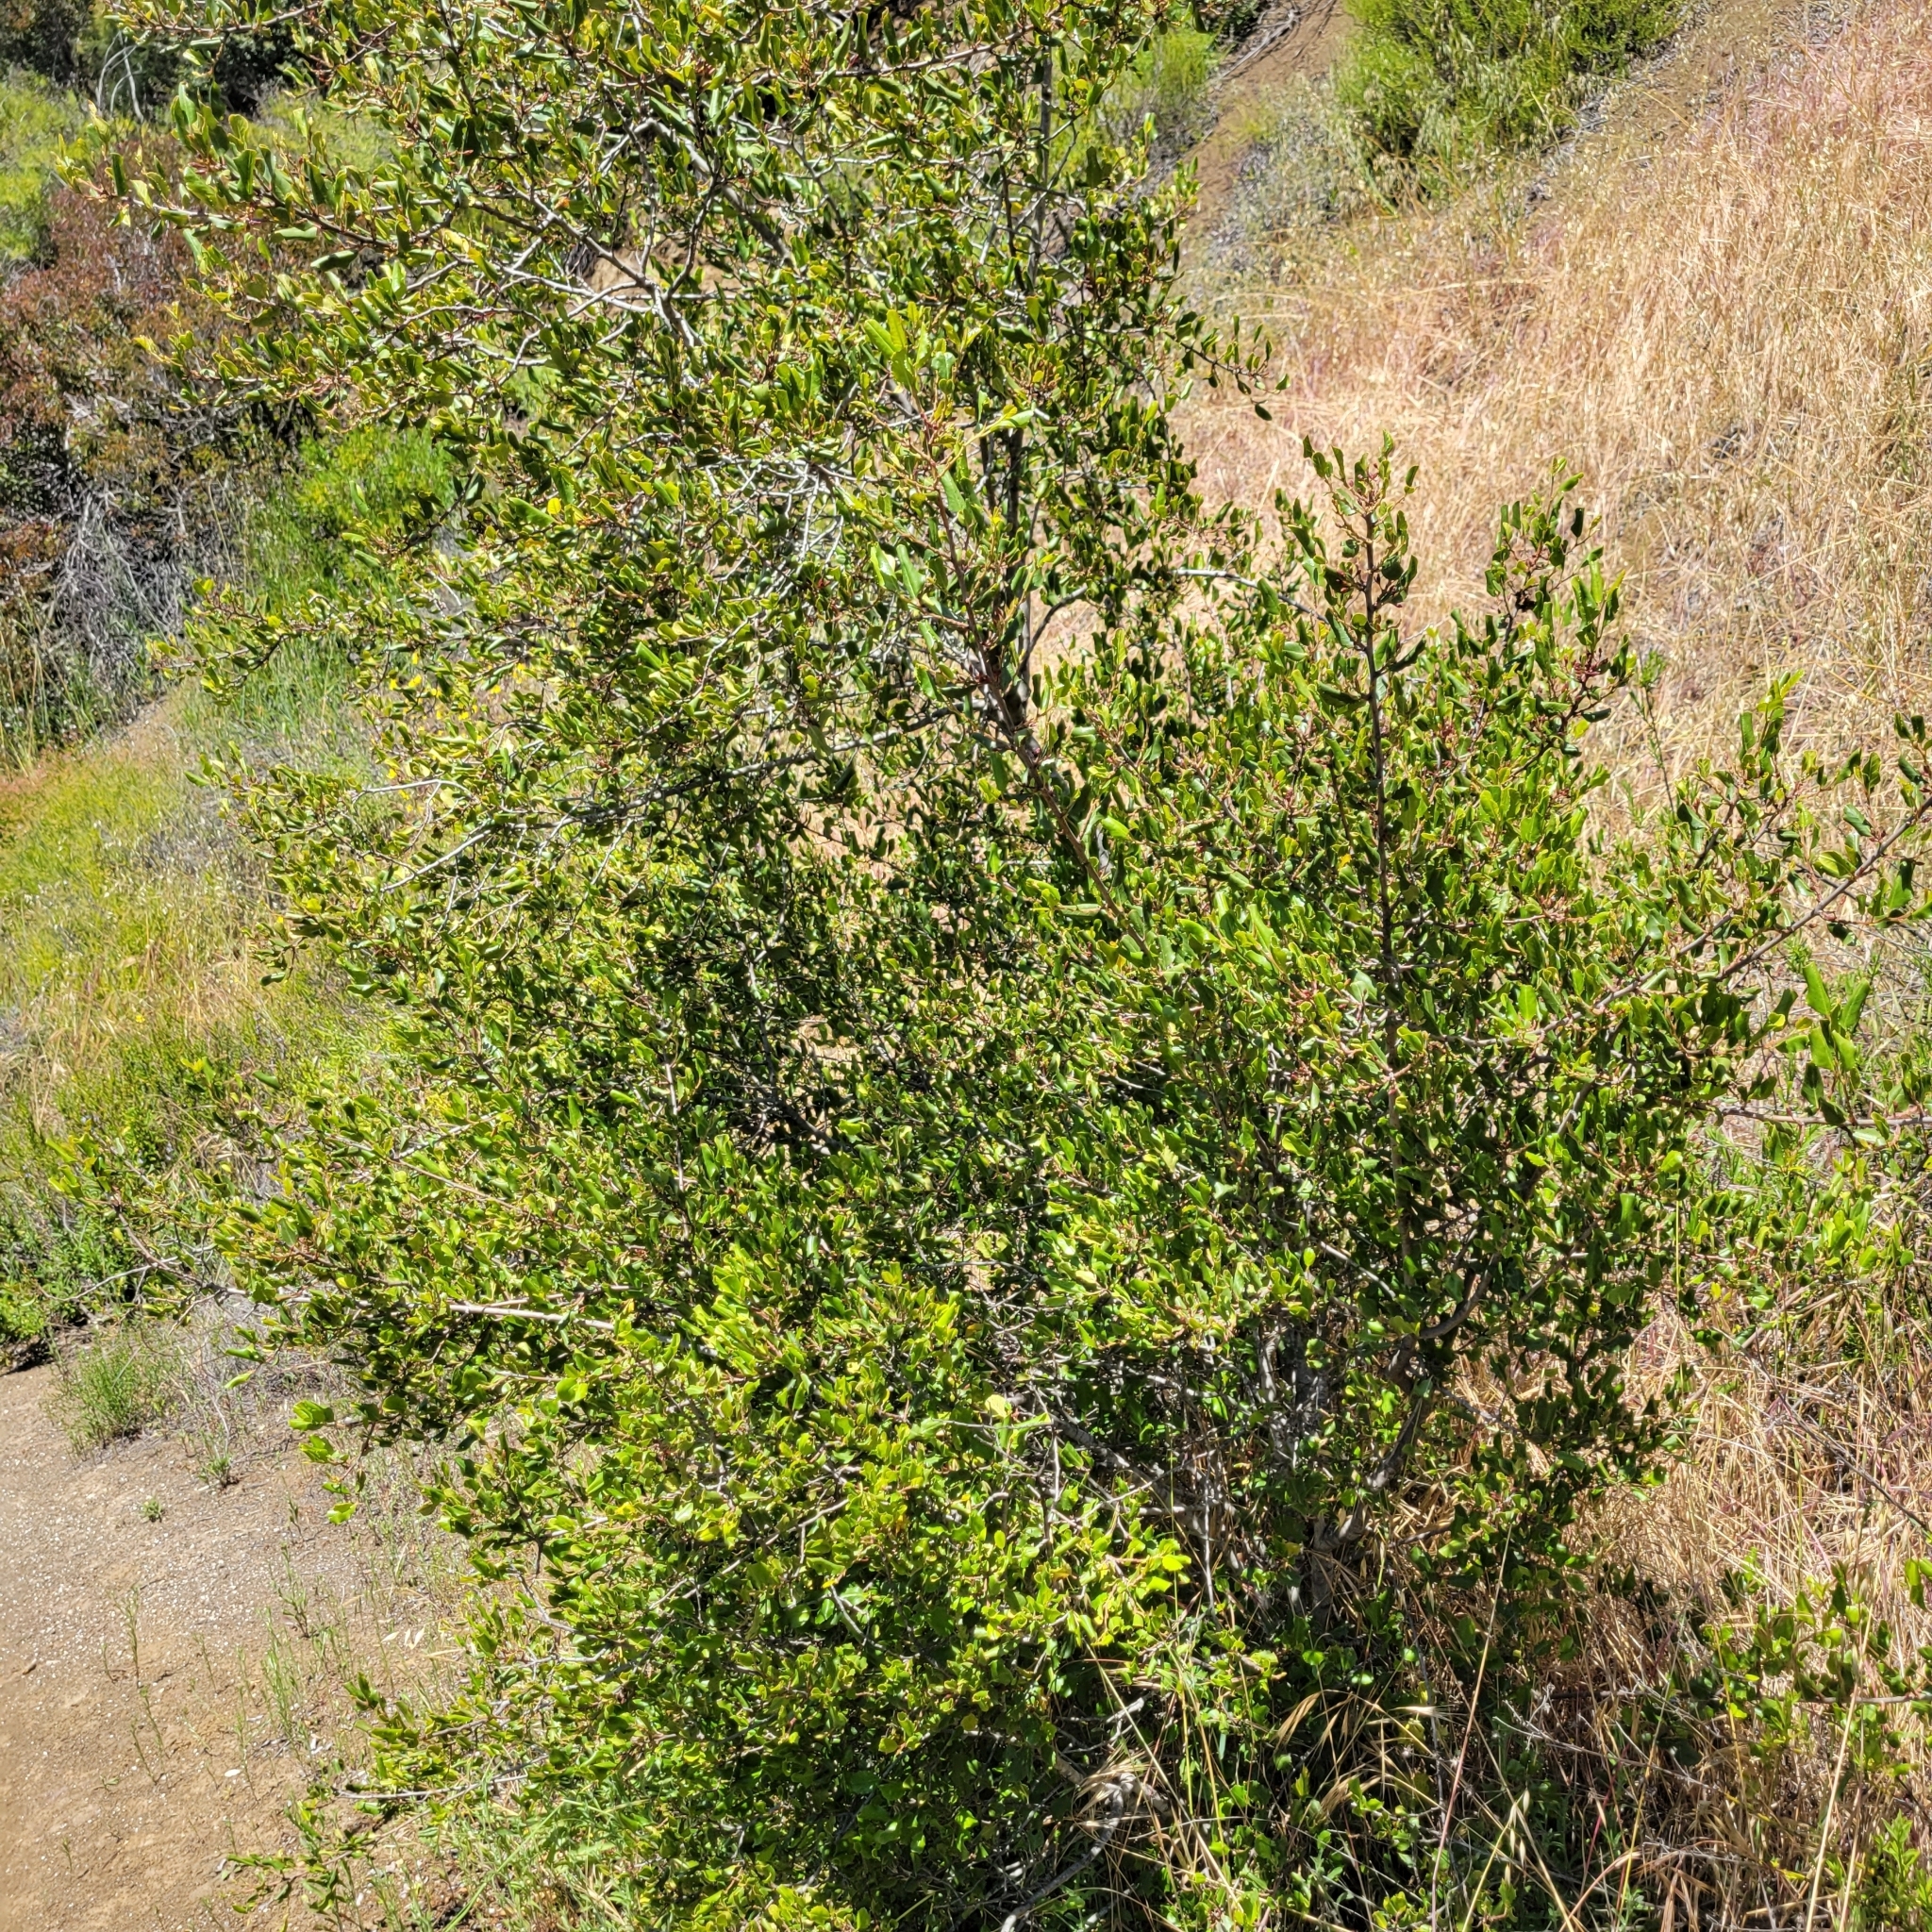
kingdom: Plantae
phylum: Tracheophyta
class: Magnoliopsida
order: Rosales
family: Rhamnaceae
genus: Endotropis
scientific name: Endotropis crocea
